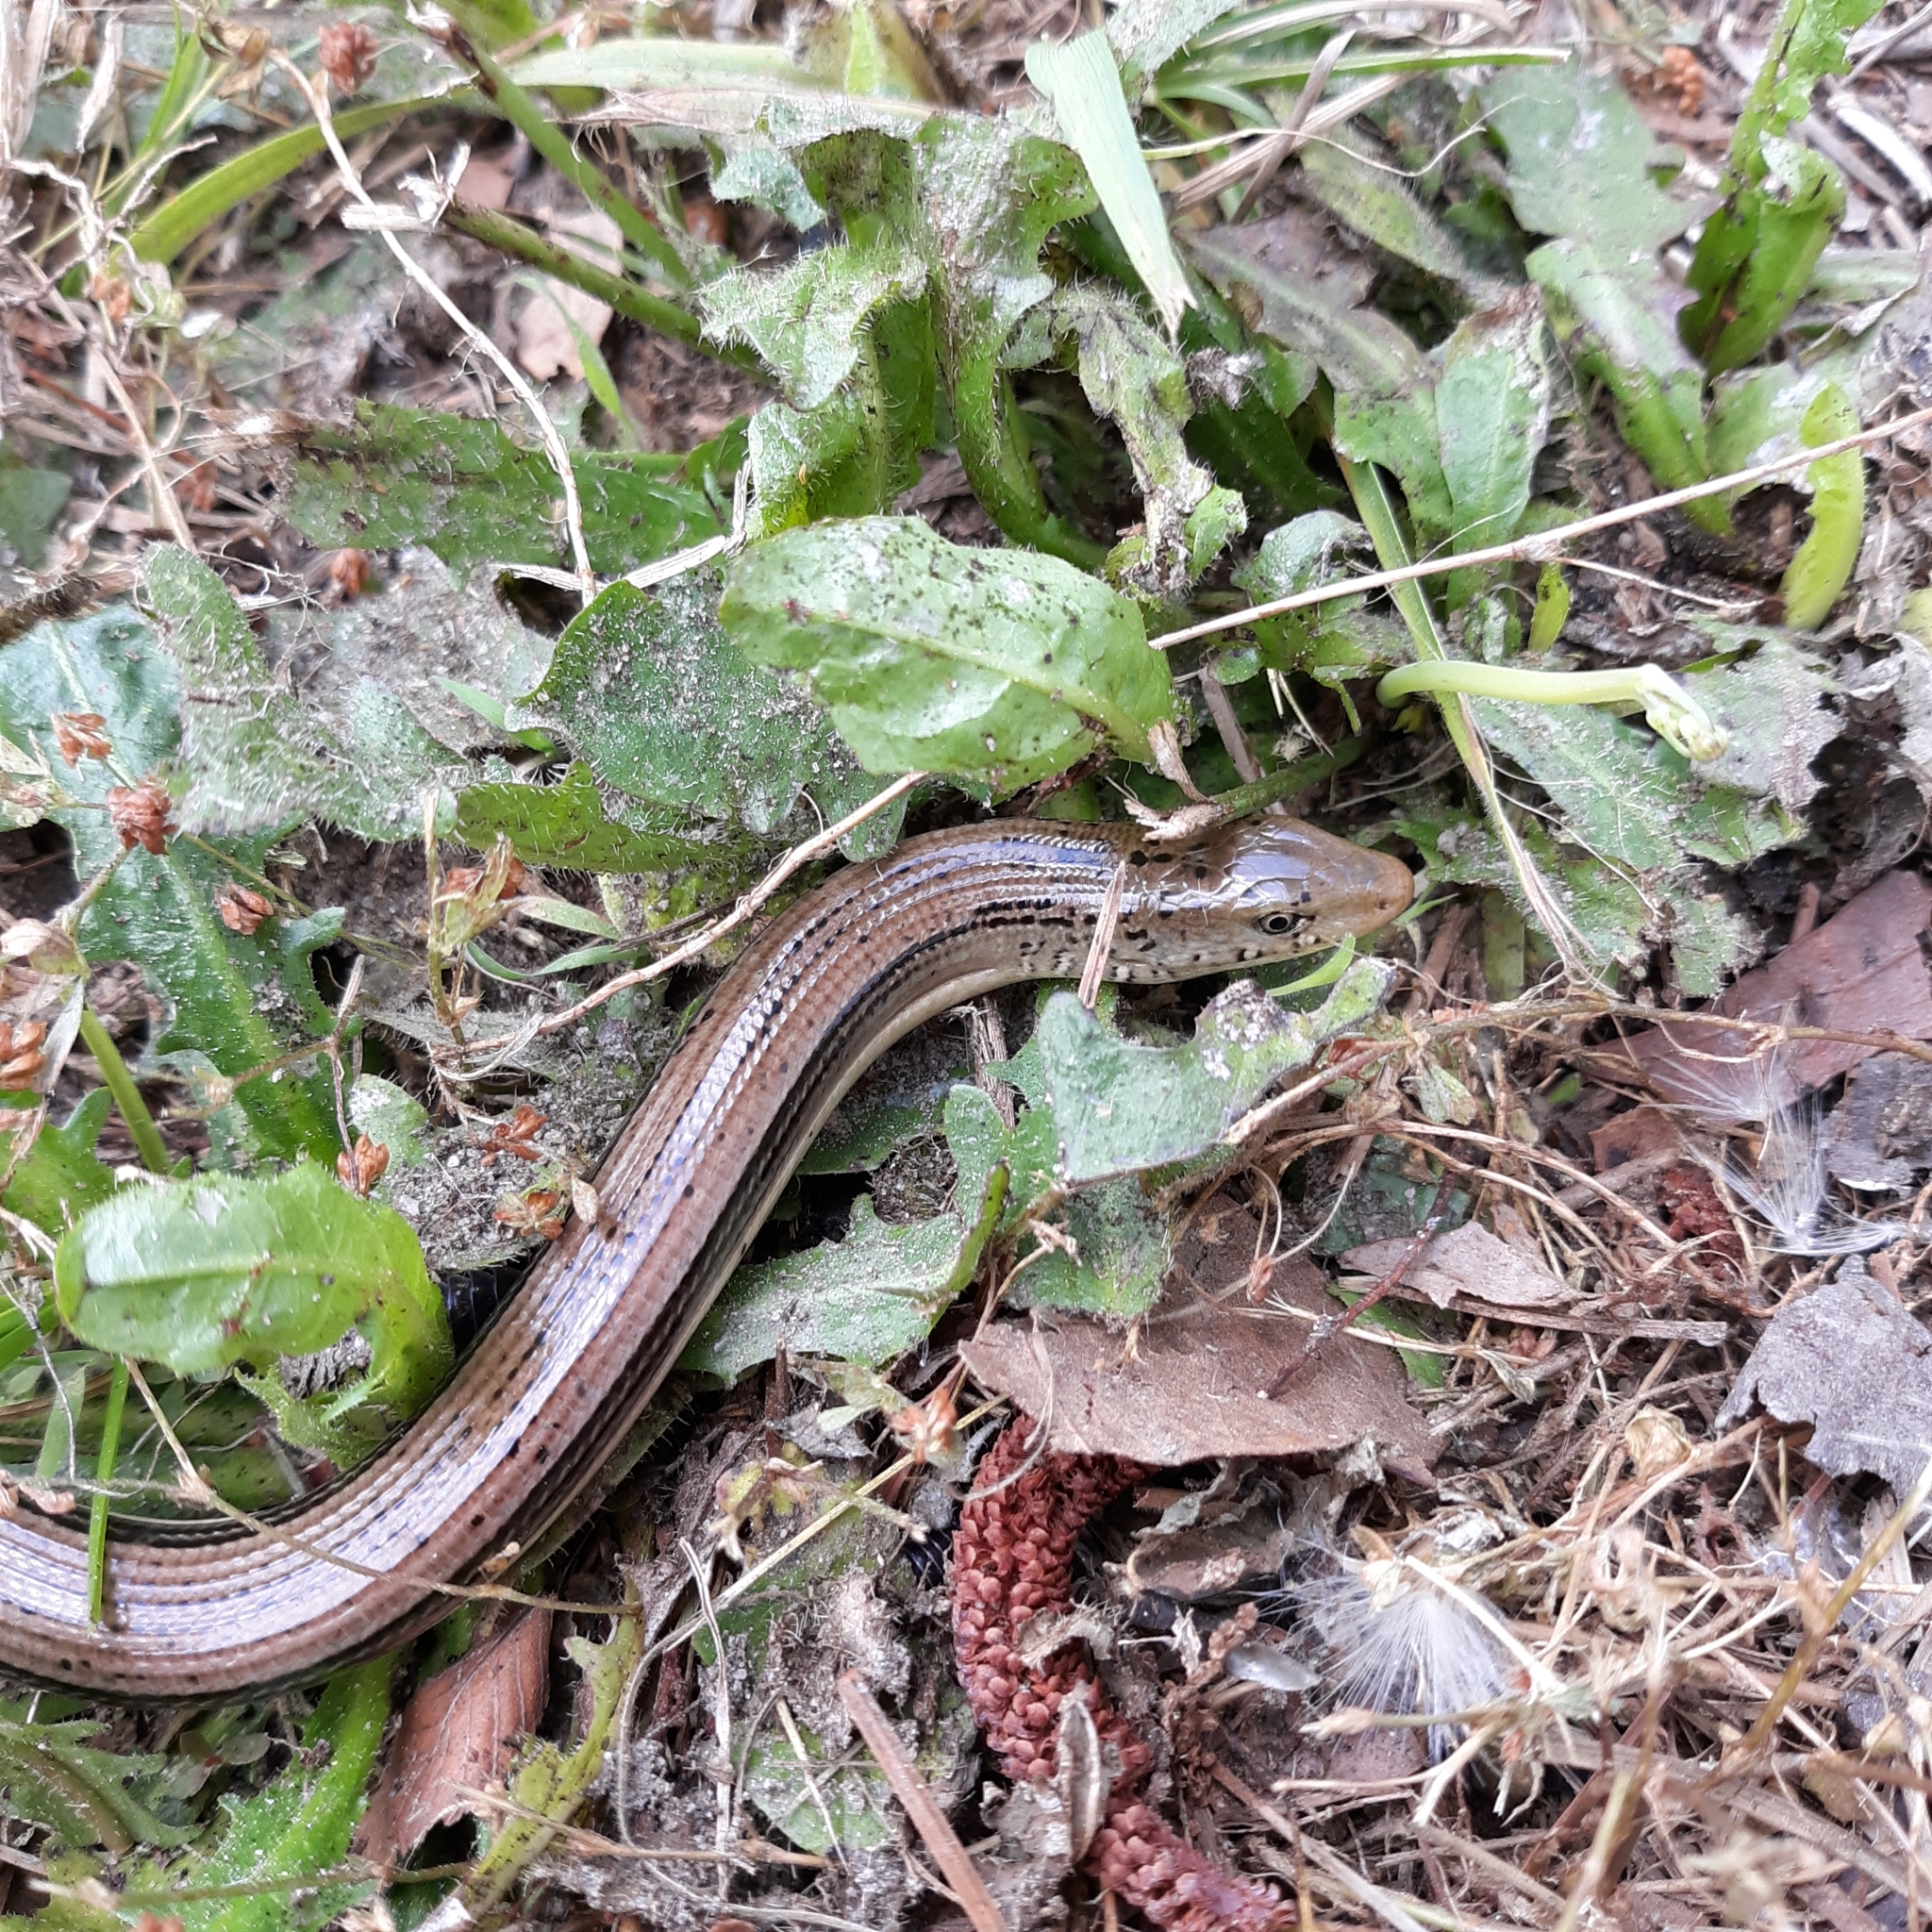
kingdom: Animalia
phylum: Chordata
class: Squamata
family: Anguidae
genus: Ophisaurus
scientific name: Ophisaurus ventralis
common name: Eastern glass lizard
